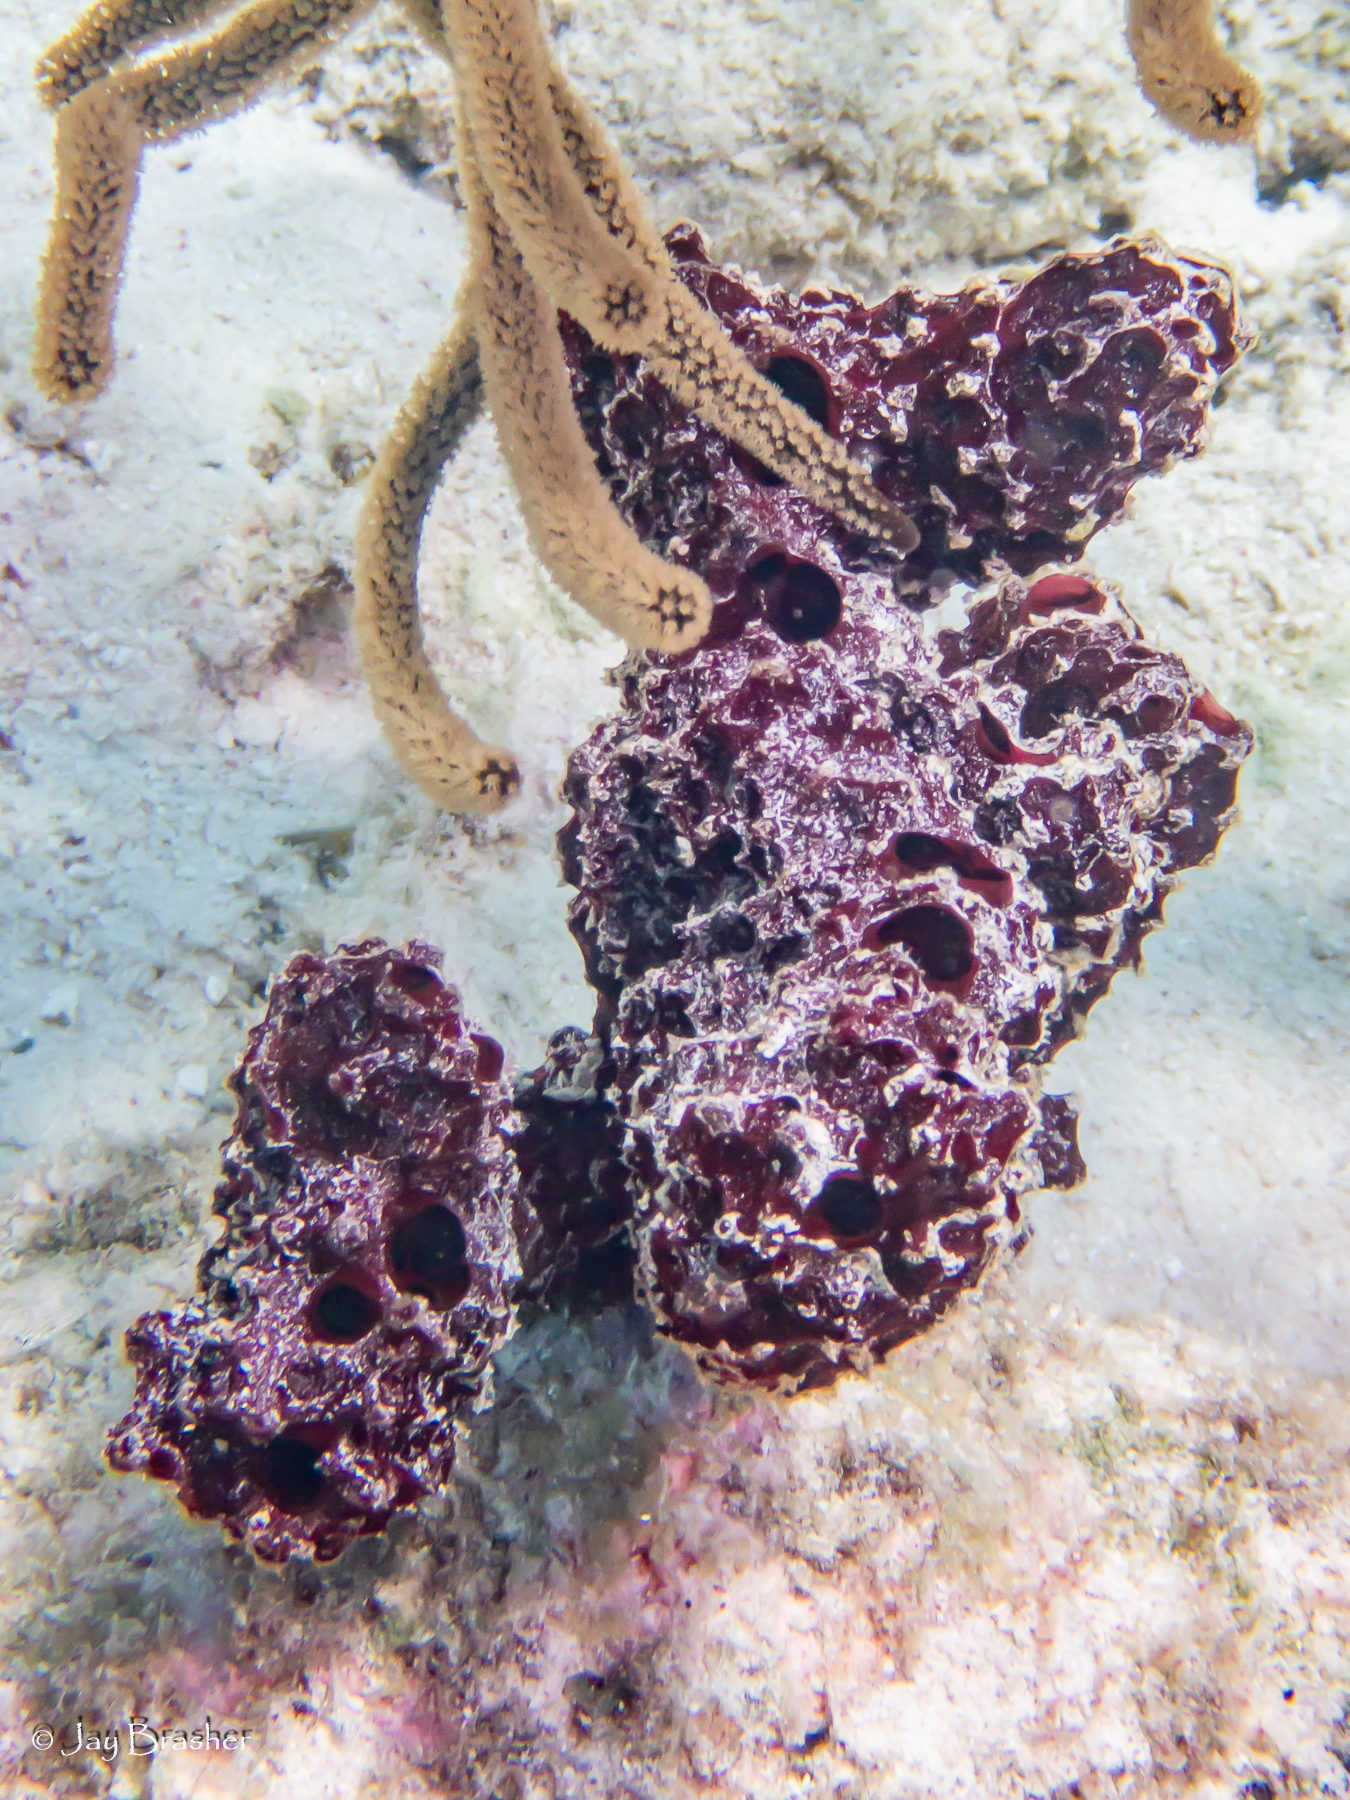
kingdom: Animalia
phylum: Porifera
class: Demospongiae
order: Poecilosclerida
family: Microcionidae
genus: Pandaros
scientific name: Pandaros acanthifolium
